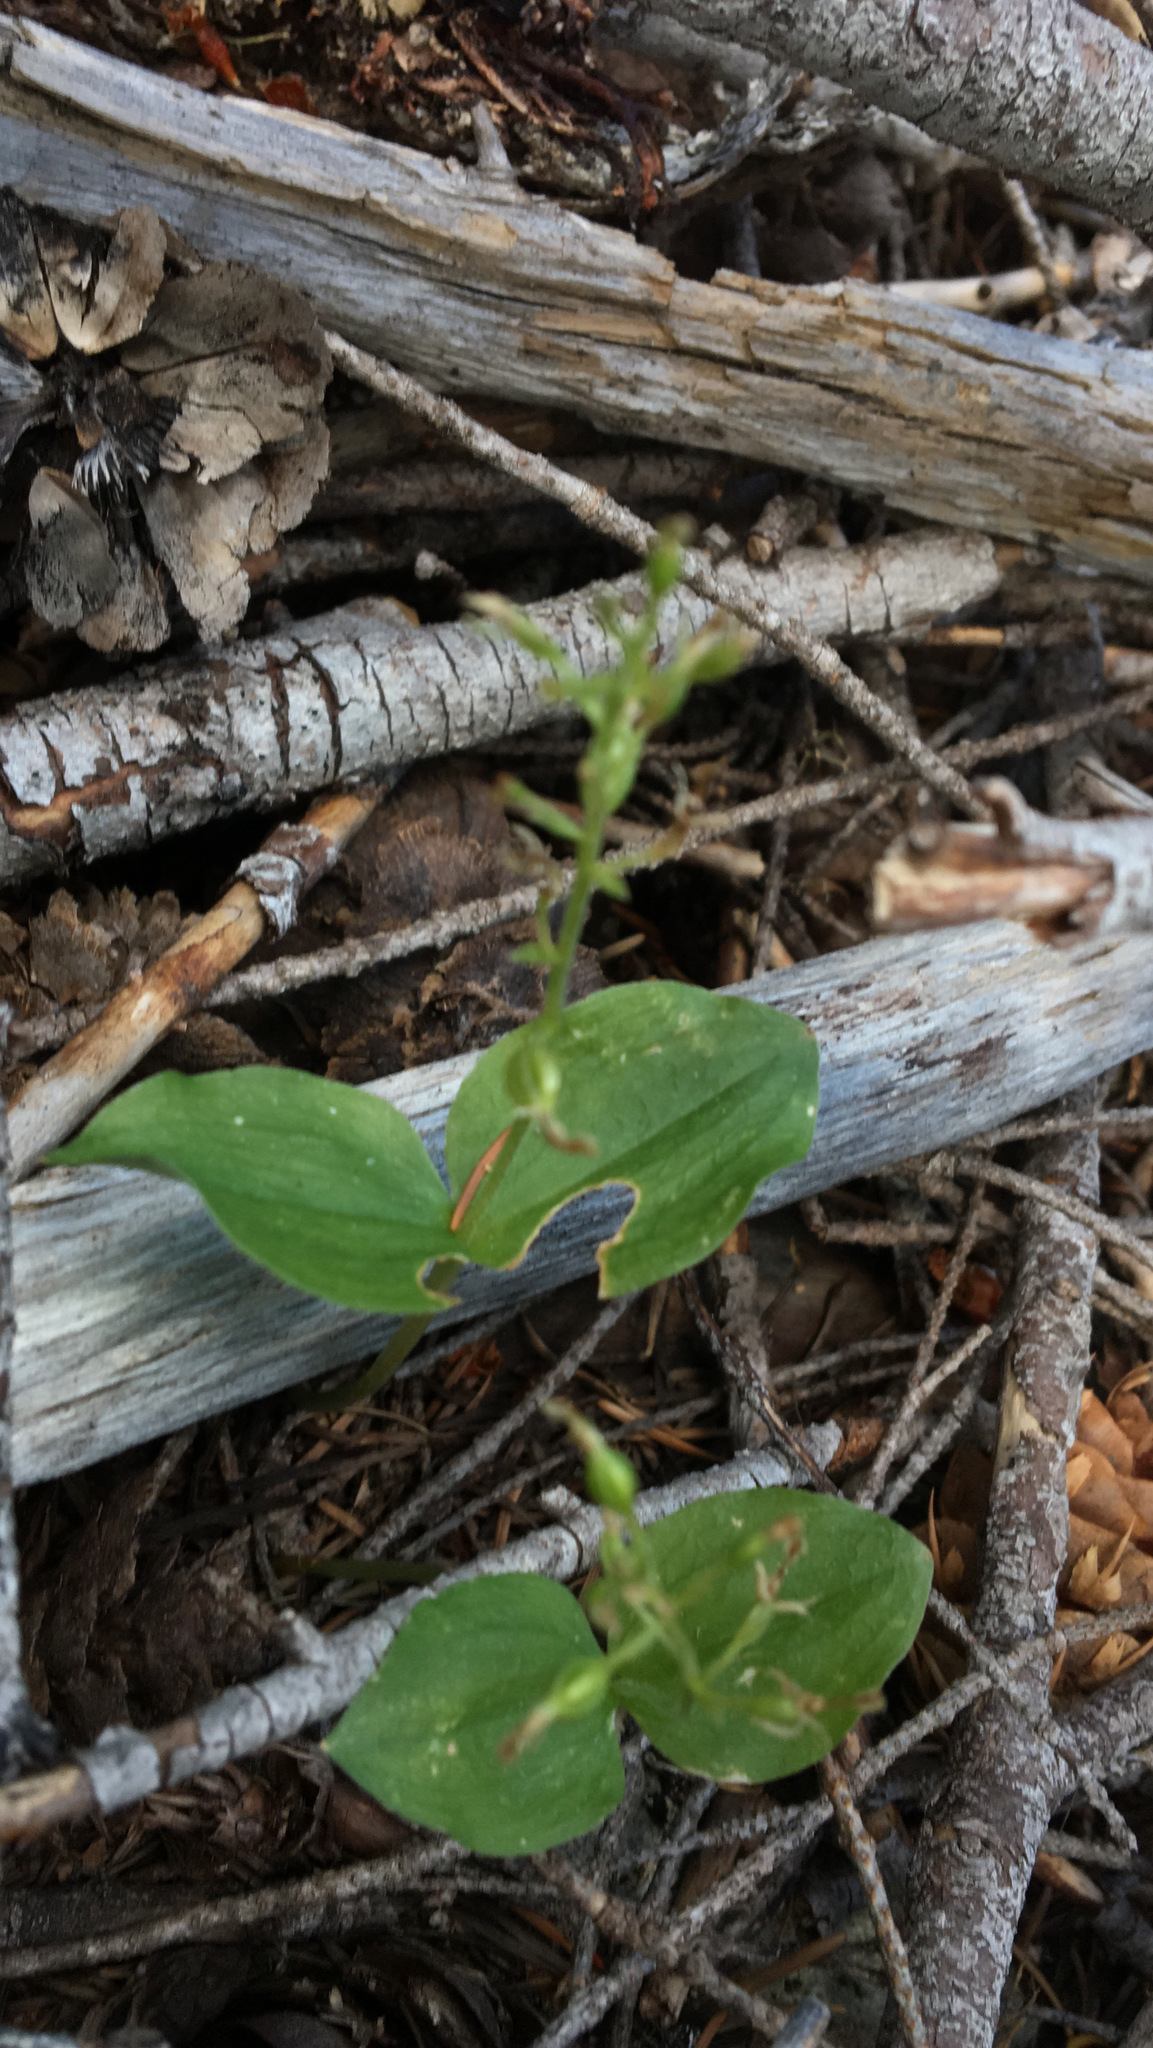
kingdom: Plantae
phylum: Tracheophyta
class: Liliopsida
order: Asparagales
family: Orchidaceae
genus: Neottia
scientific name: Neottia banksiana
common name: Northwestern twayblade
